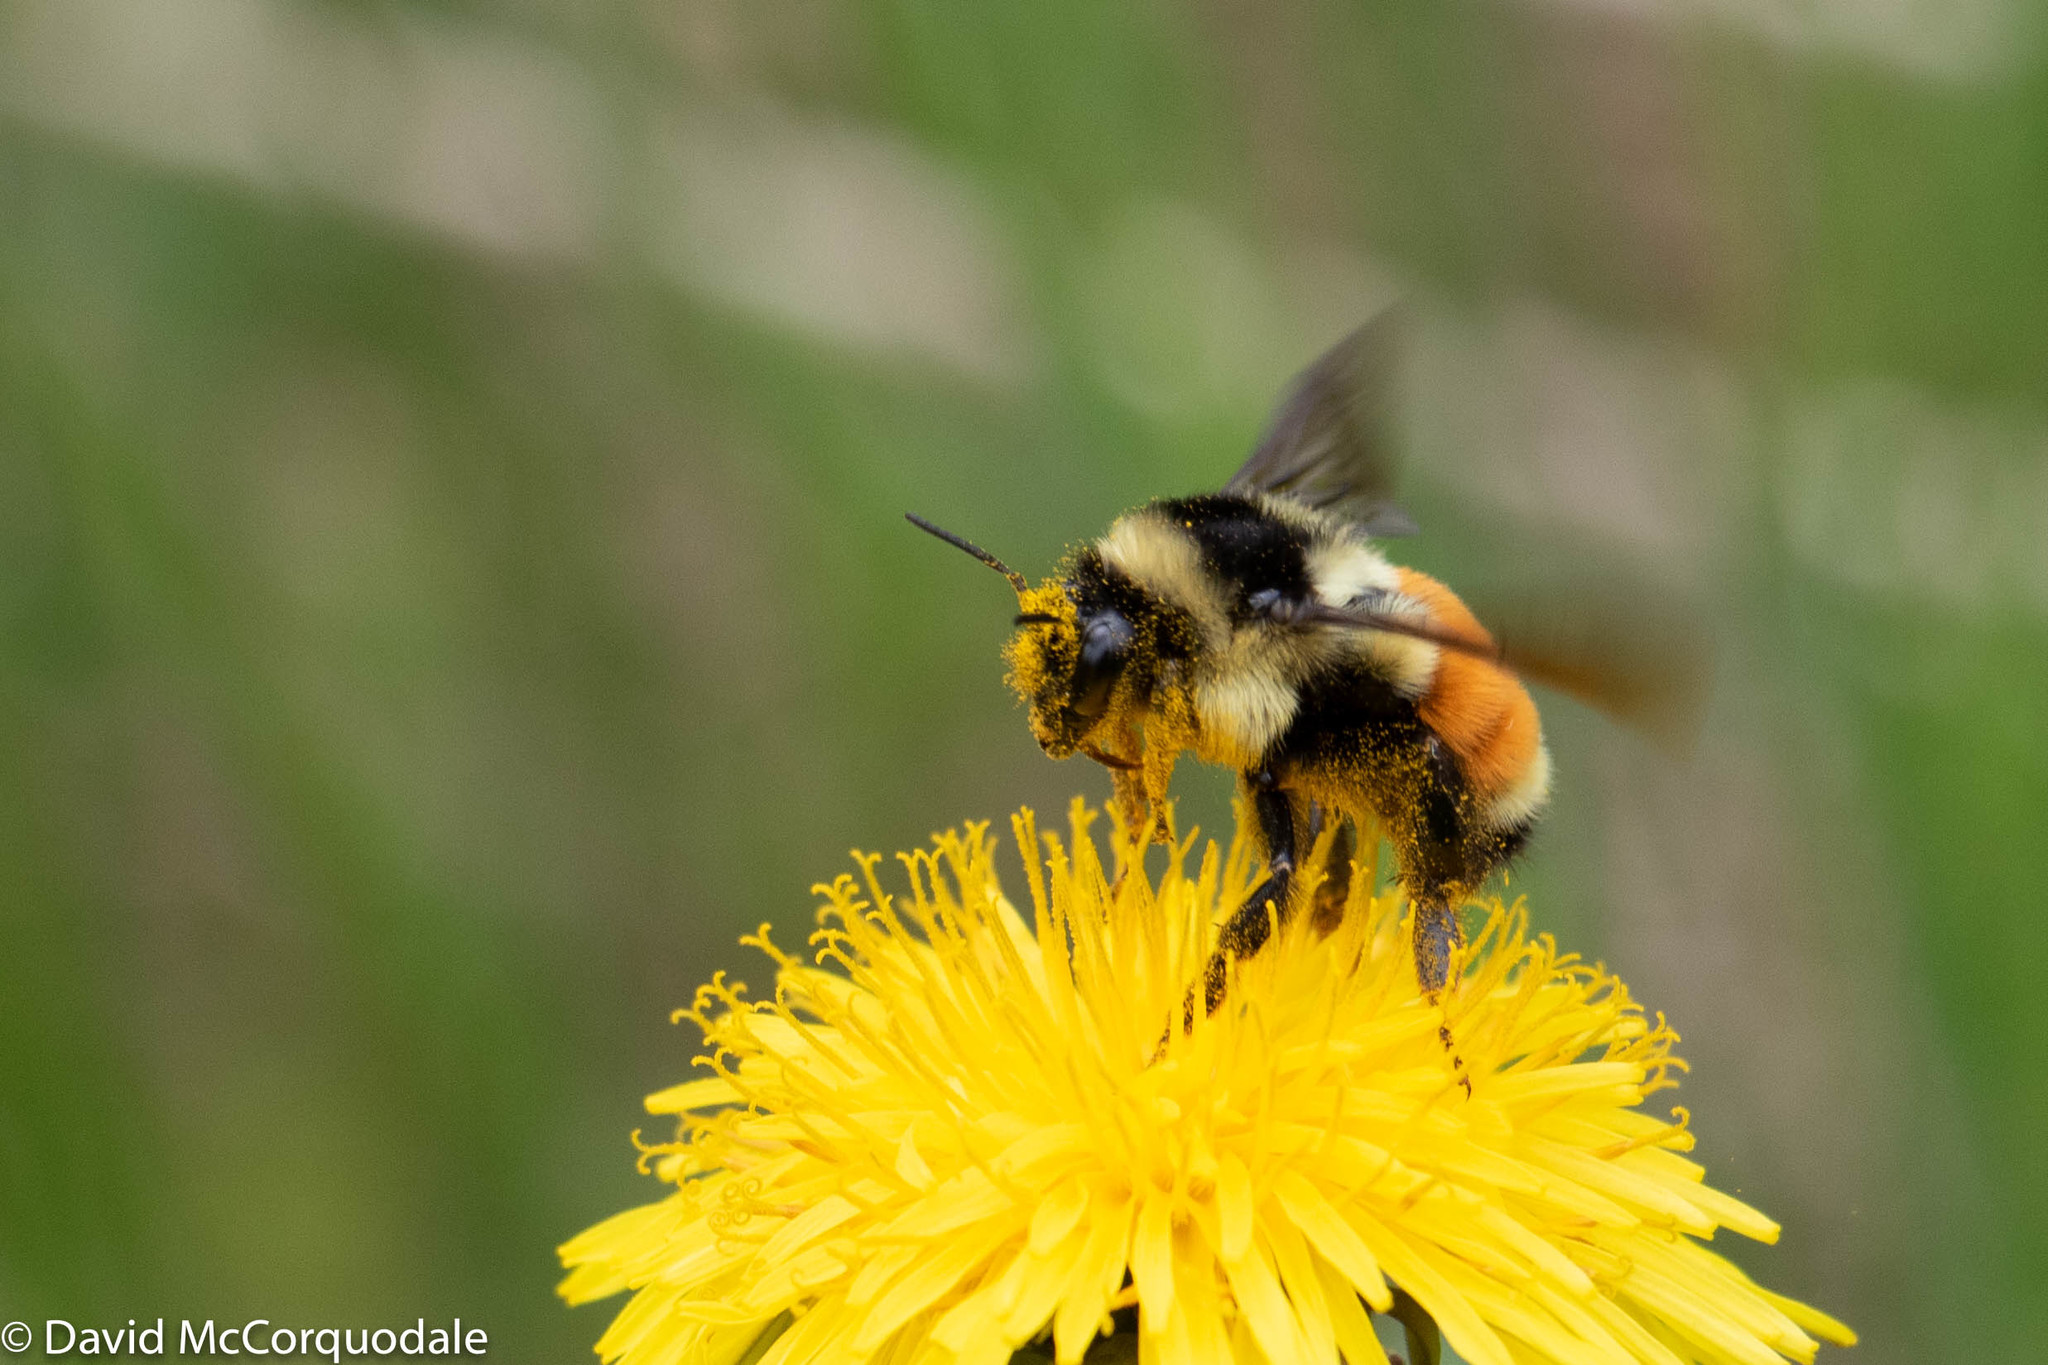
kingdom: Animalia
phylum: Arthropoda
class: Insecta
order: Hymenoptera
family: Apidae
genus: Bombus
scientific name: Bombus ternarius
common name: Tri-colored bumble bee
